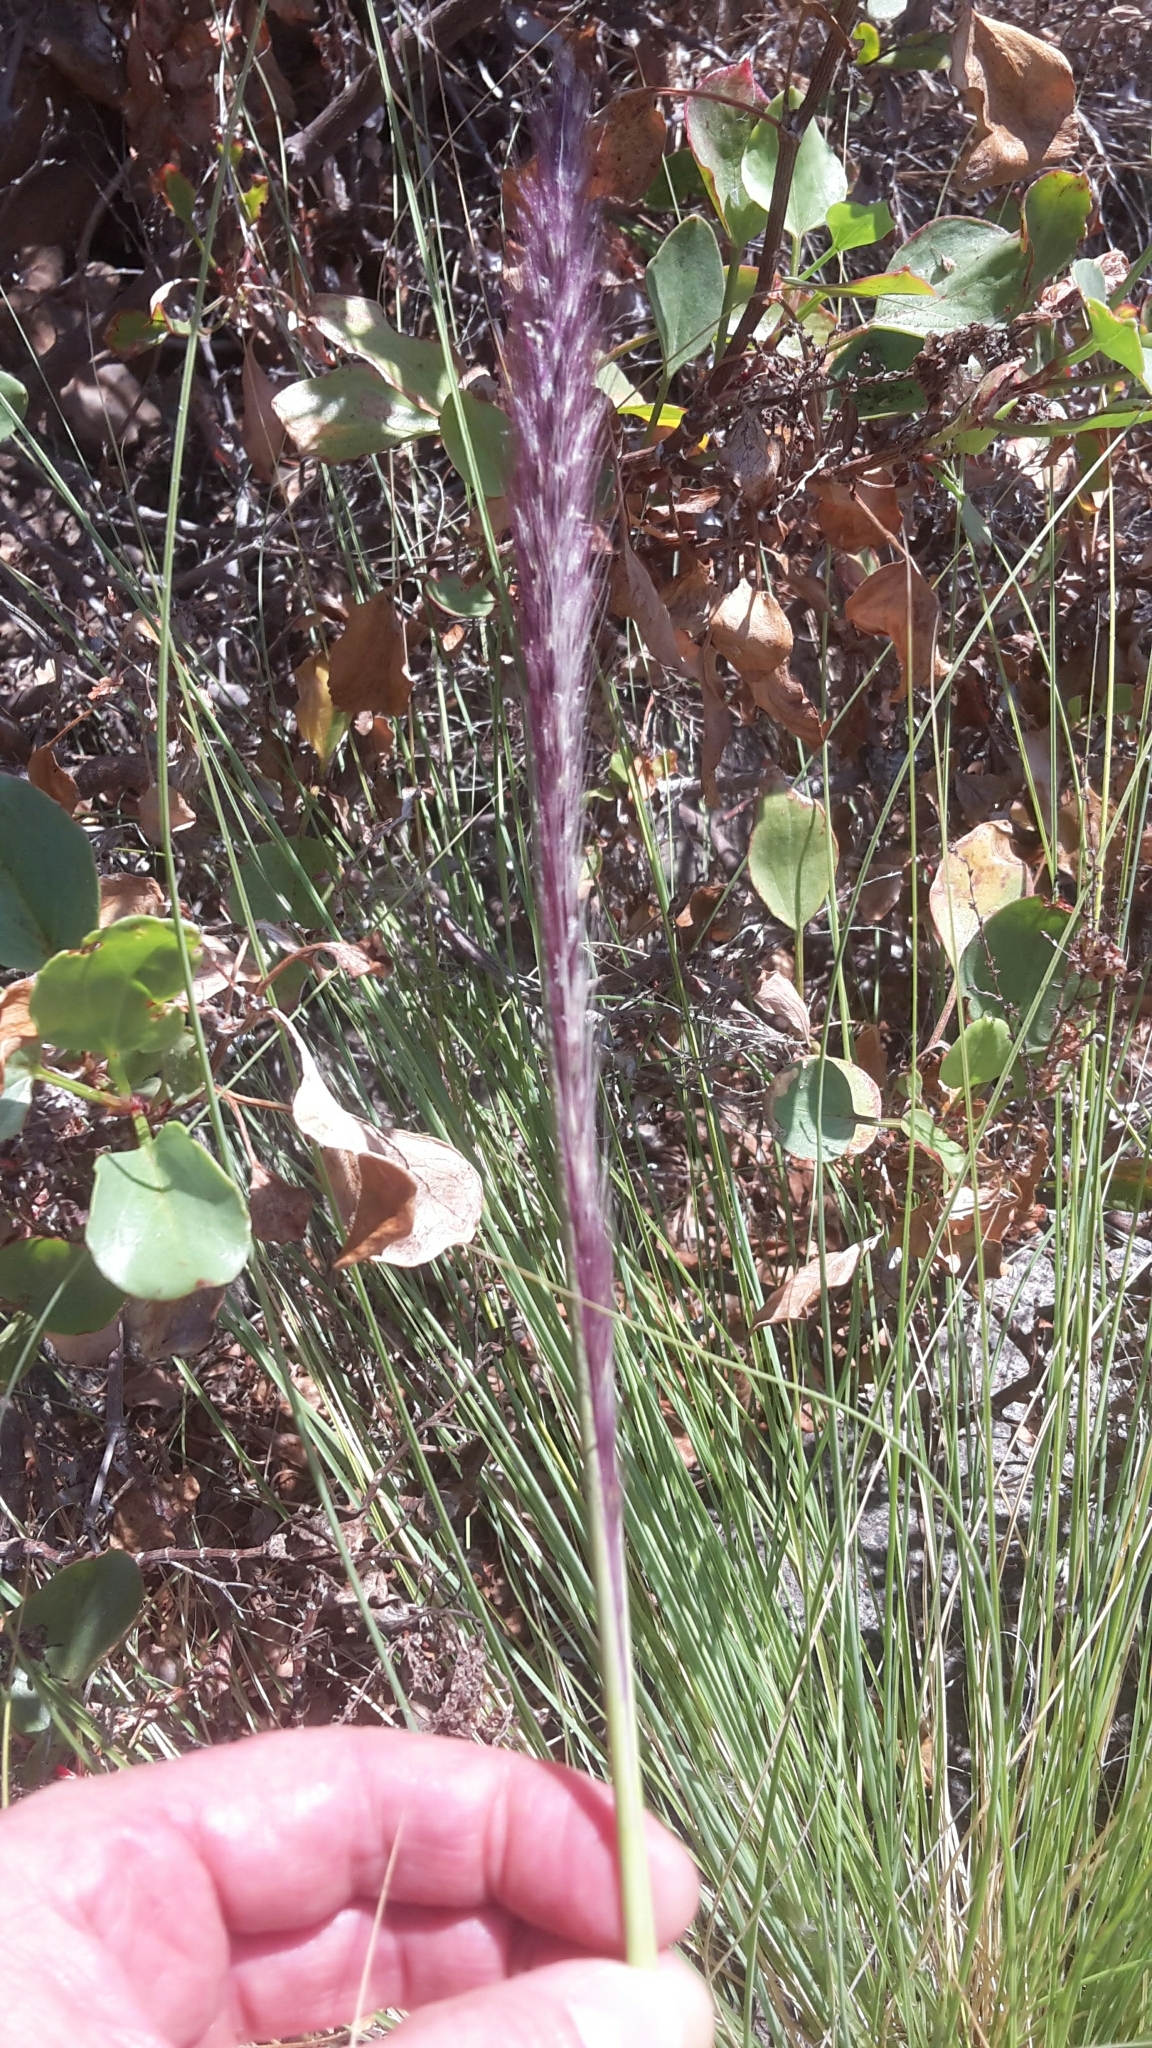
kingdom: Plantae
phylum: Tracheophyta
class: Liliopsida
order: Poales
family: Poaceae
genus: Cenchrus
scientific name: Cenchrus setaceus
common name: Crimson fountaingrass
